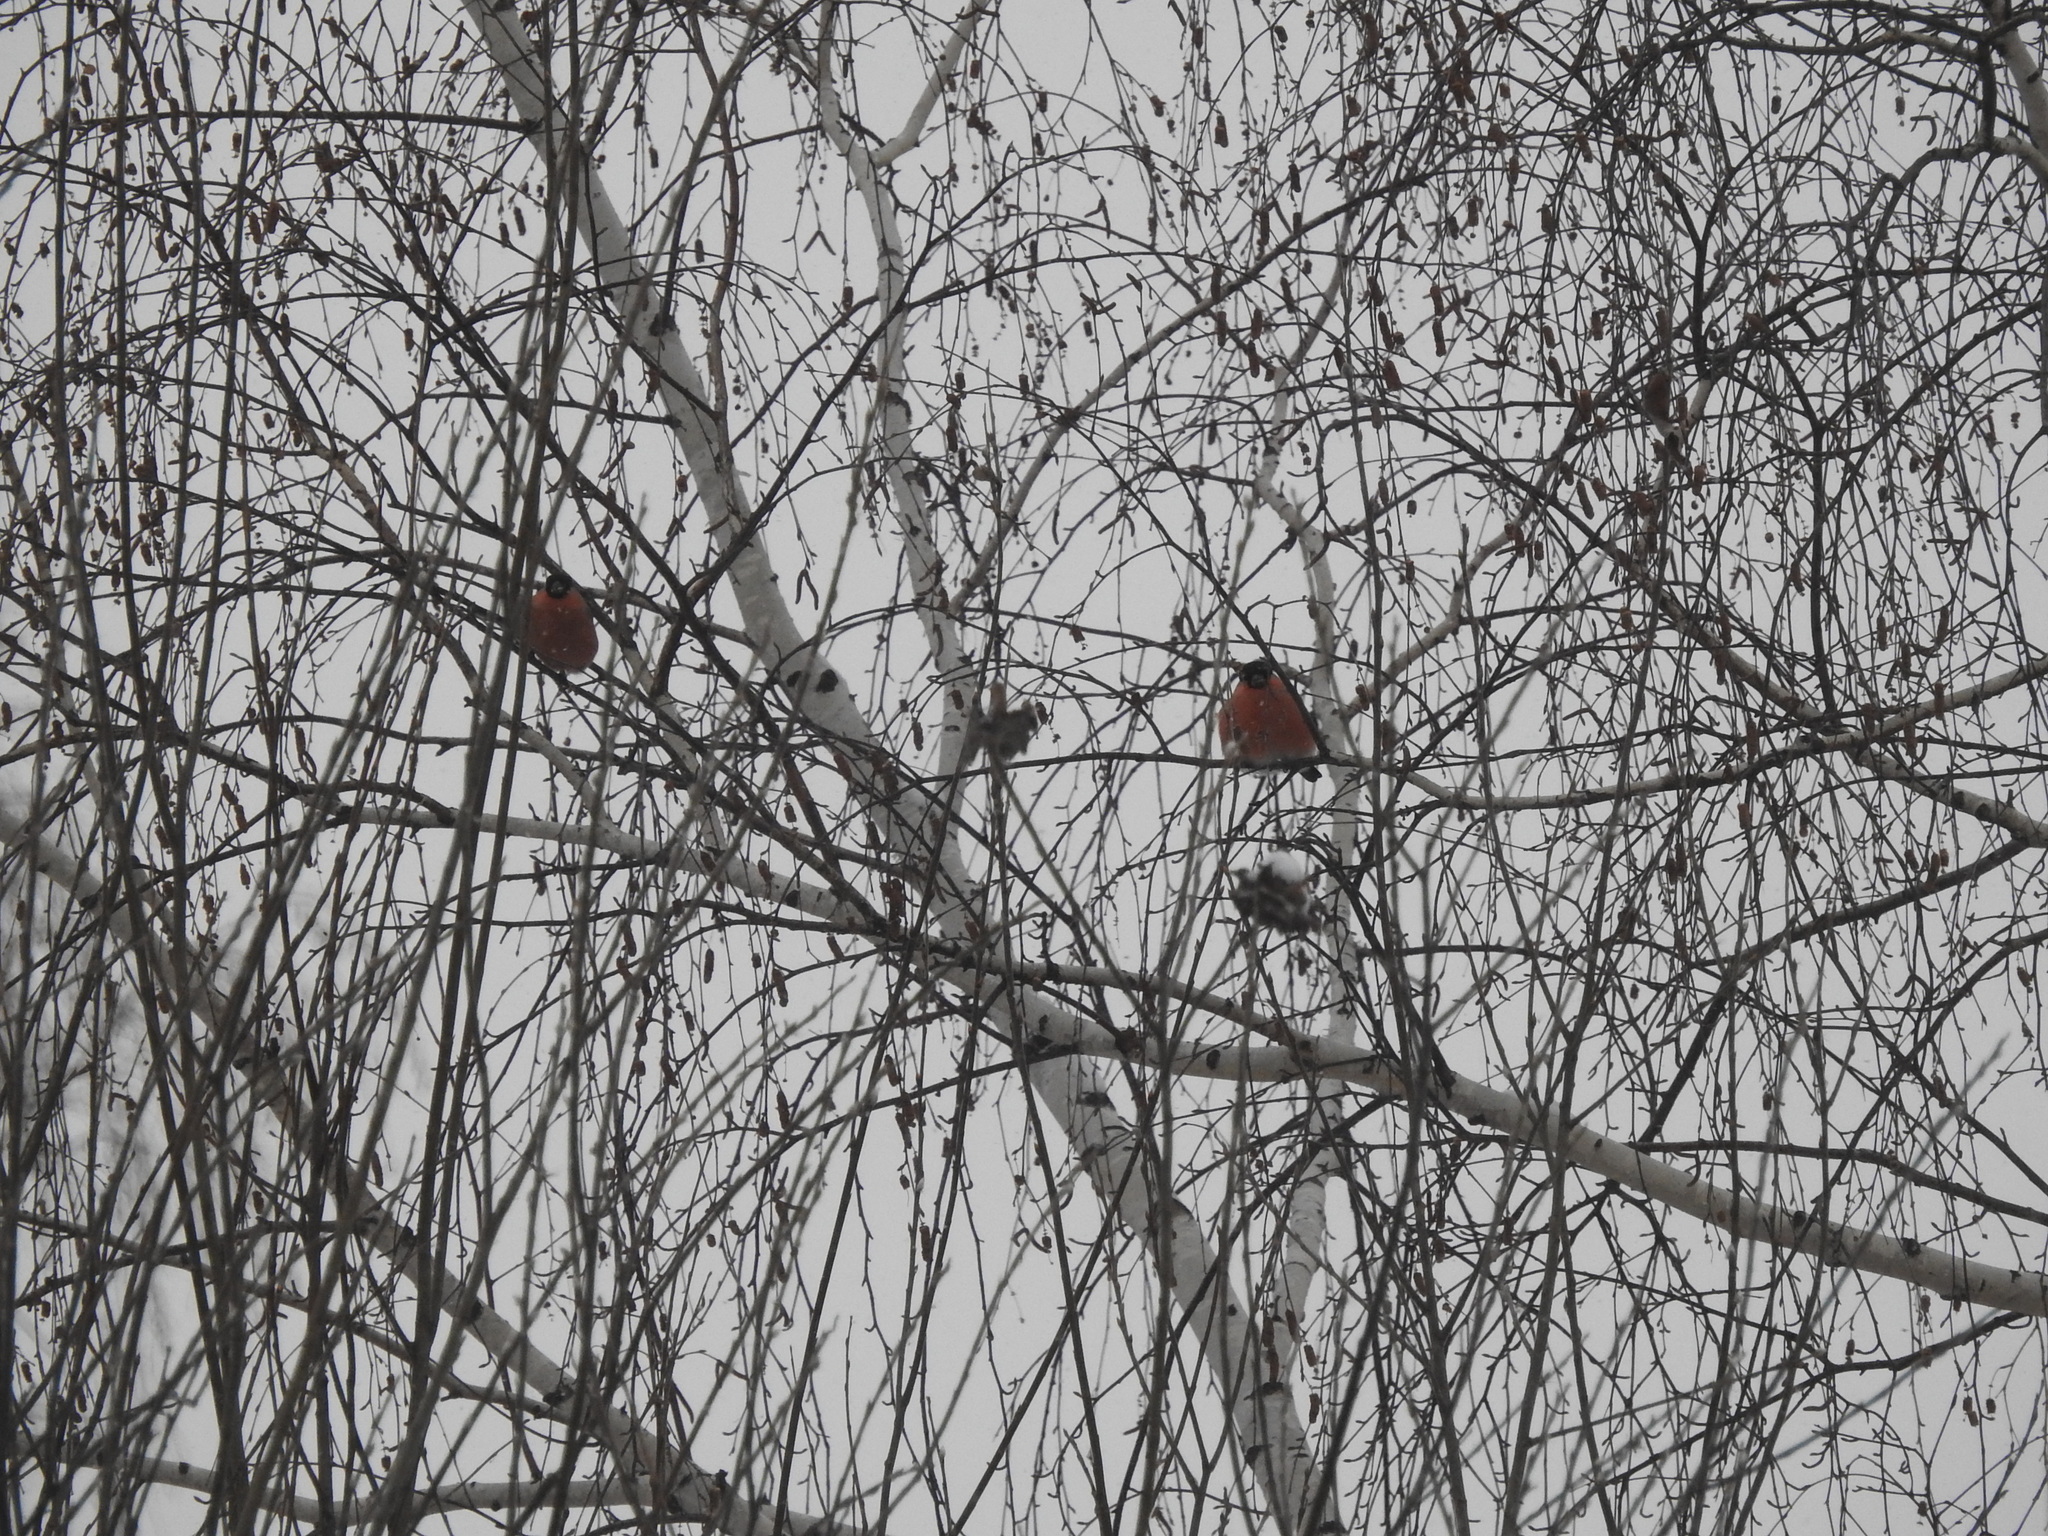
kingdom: Animalia
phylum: Chordata
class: Aves
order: Passeriformes
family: Fringillidae
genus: Pyrrhula
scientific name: Pyrrhula pyrrhula
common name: Eurasian bullfinch
